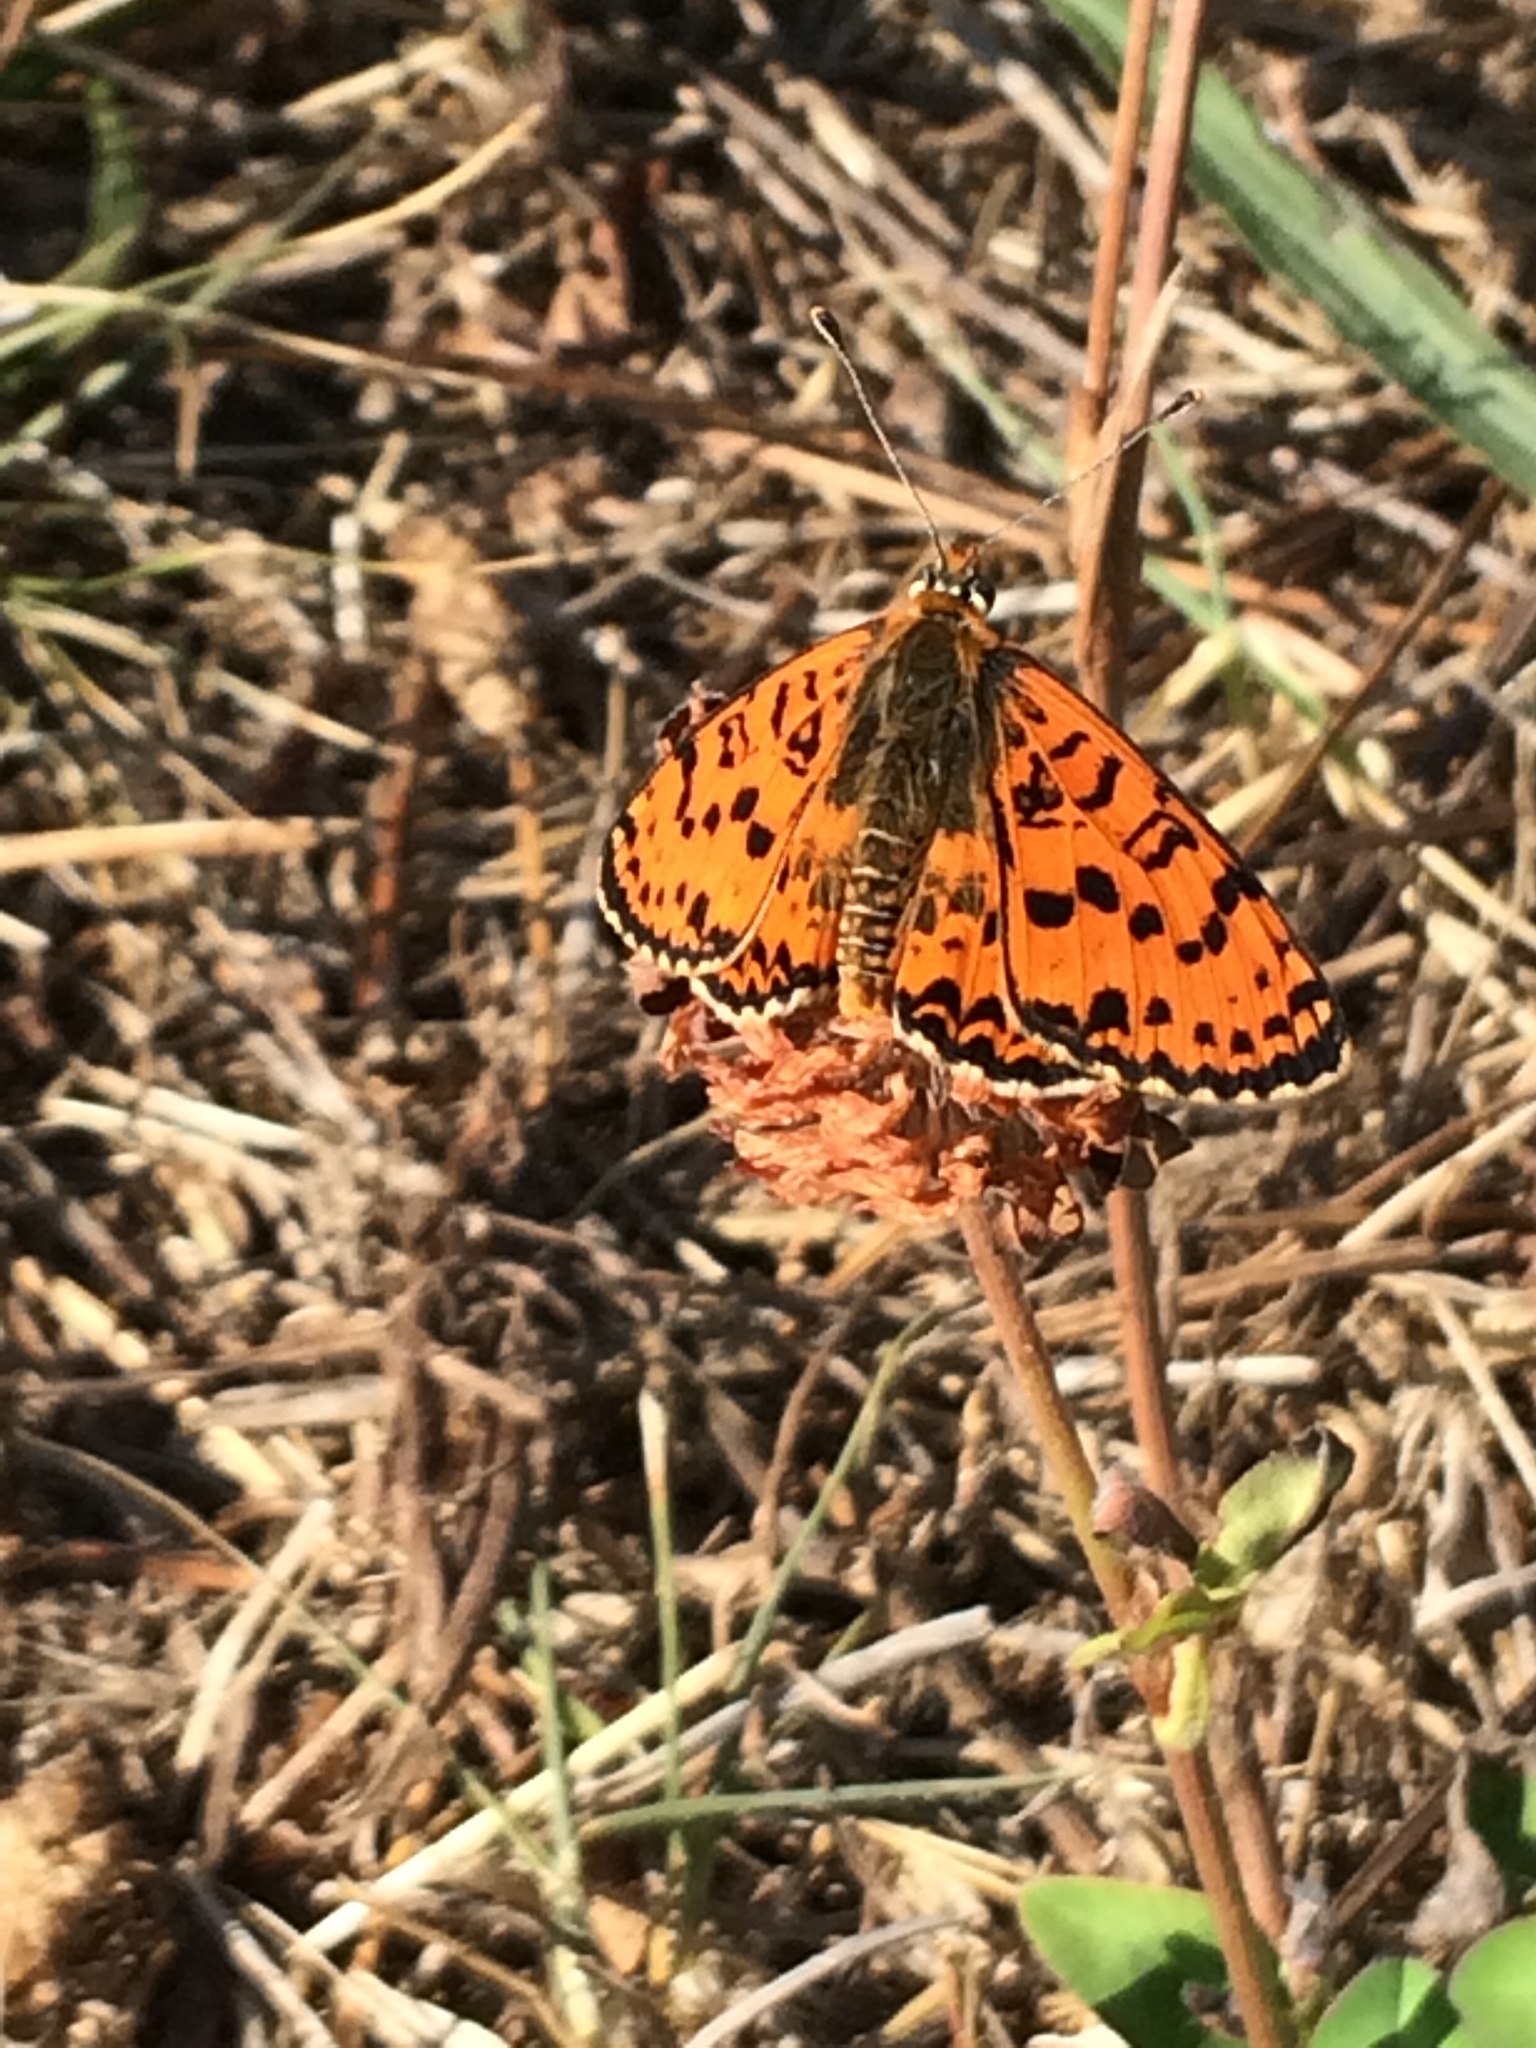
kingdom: Animalia
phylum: Arthropoda
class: Insecta
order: Lepidoptera
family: Nymphalidae
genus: Melitaea
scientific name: Melitaea didyma
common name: Spotted fritillary
